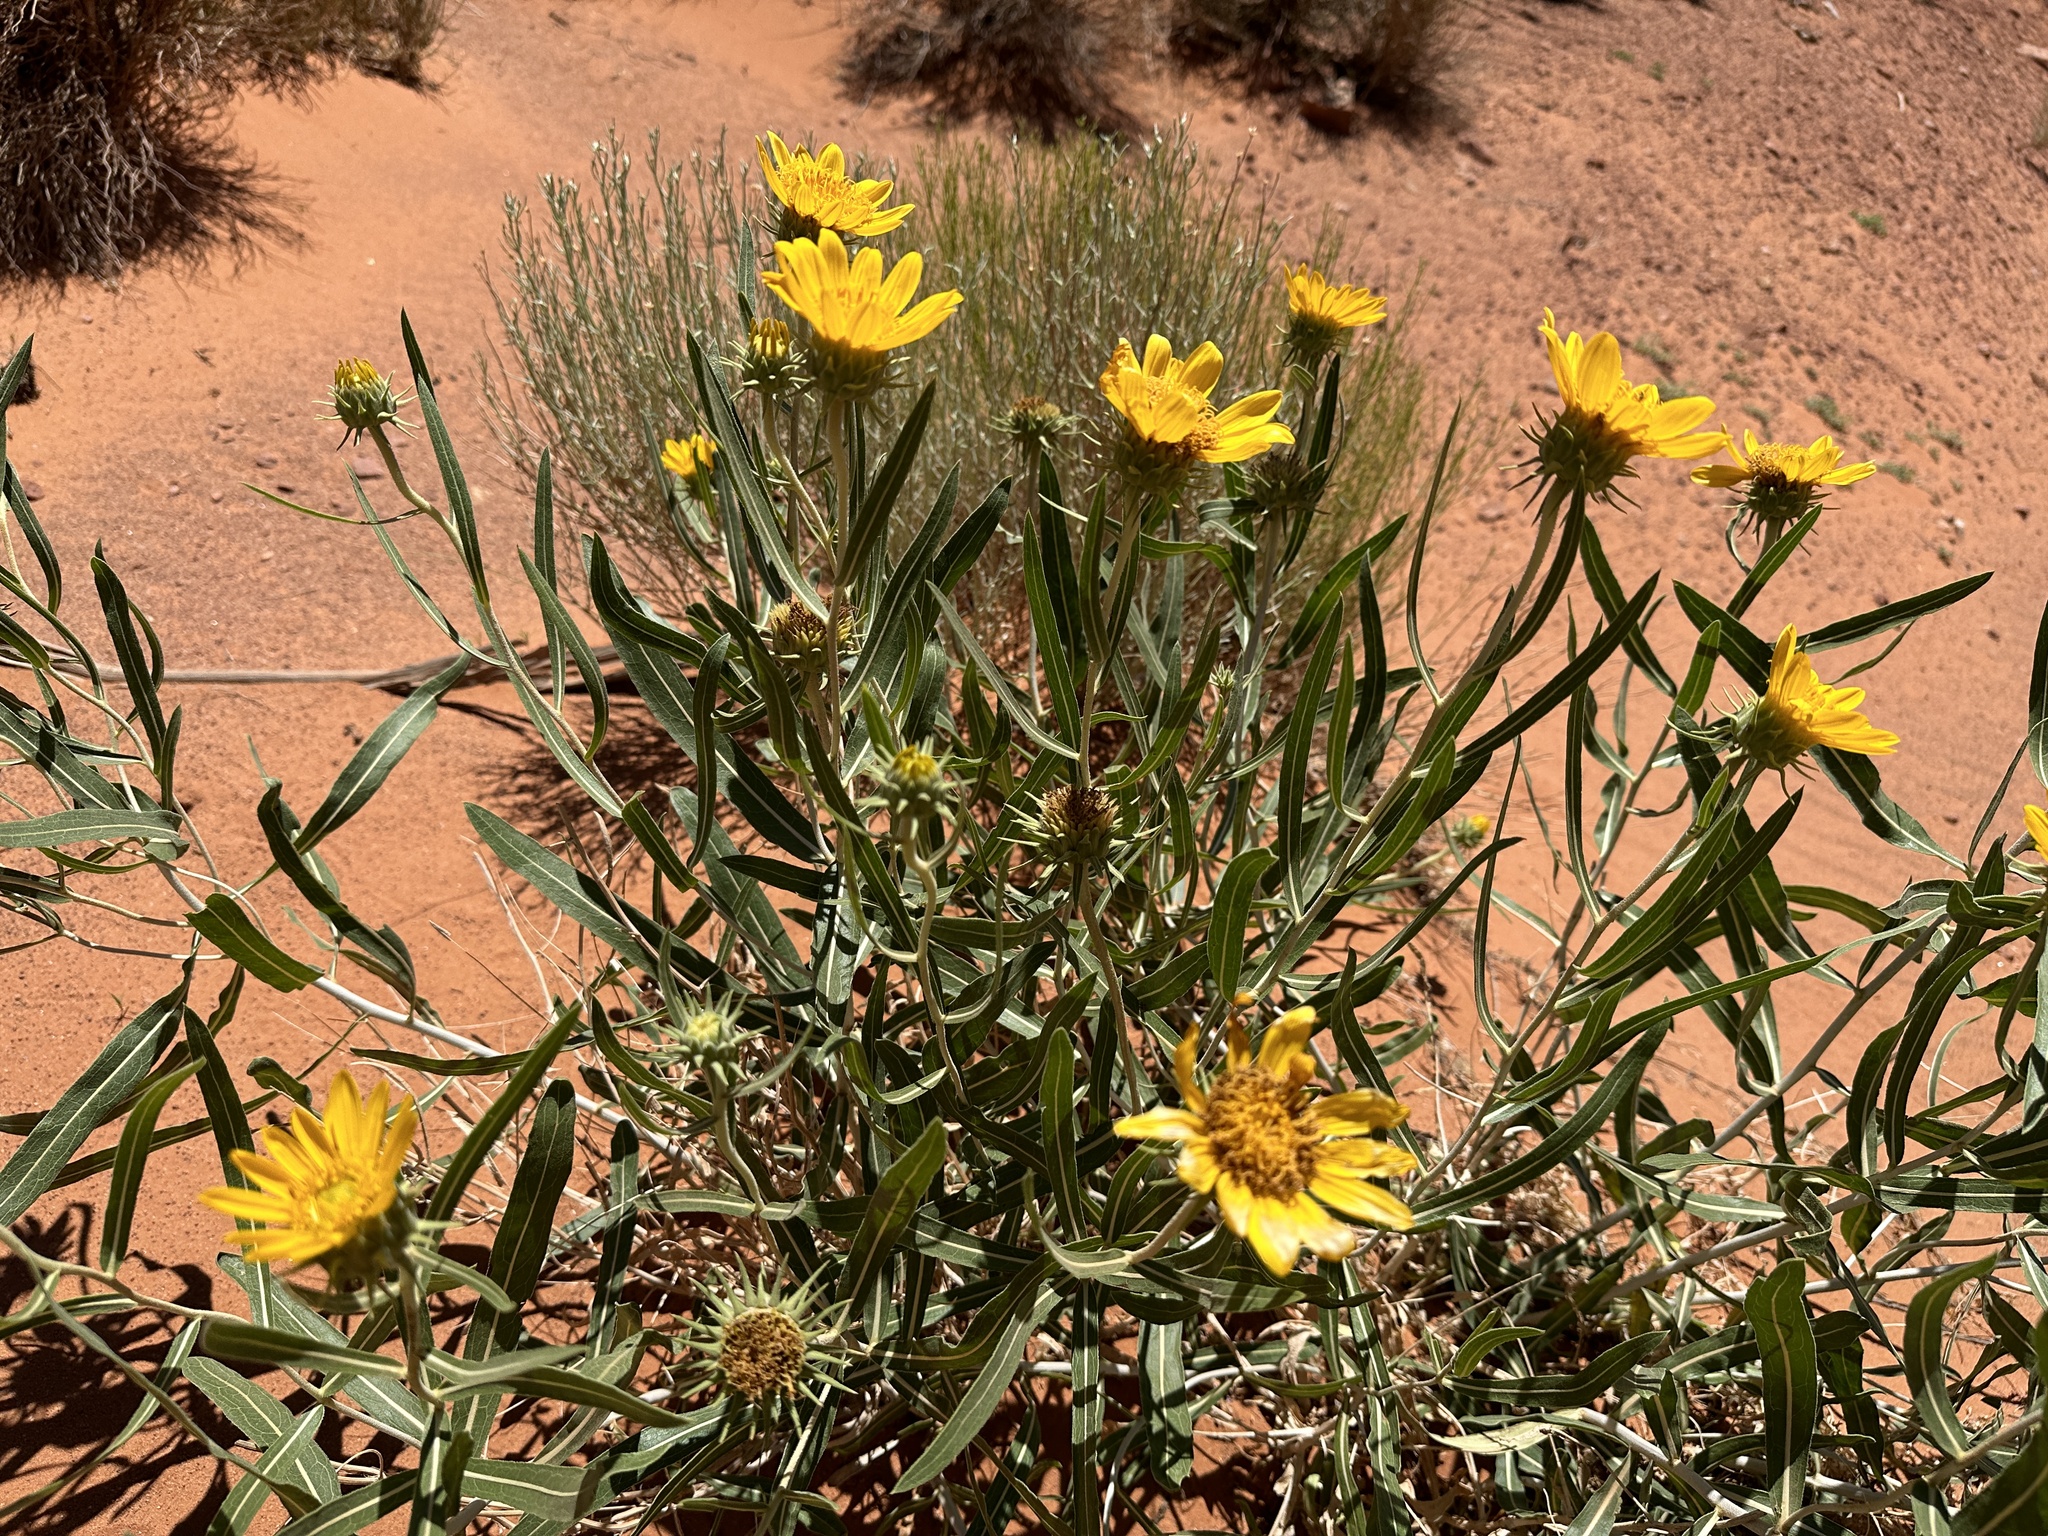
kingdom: Plantae
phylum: Tracheophyta
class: Magnoliopsida
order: Asterales
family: Asteraceae
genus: Scabrethia
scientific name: Scabrethia scabra
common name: Rough mules's-ears
